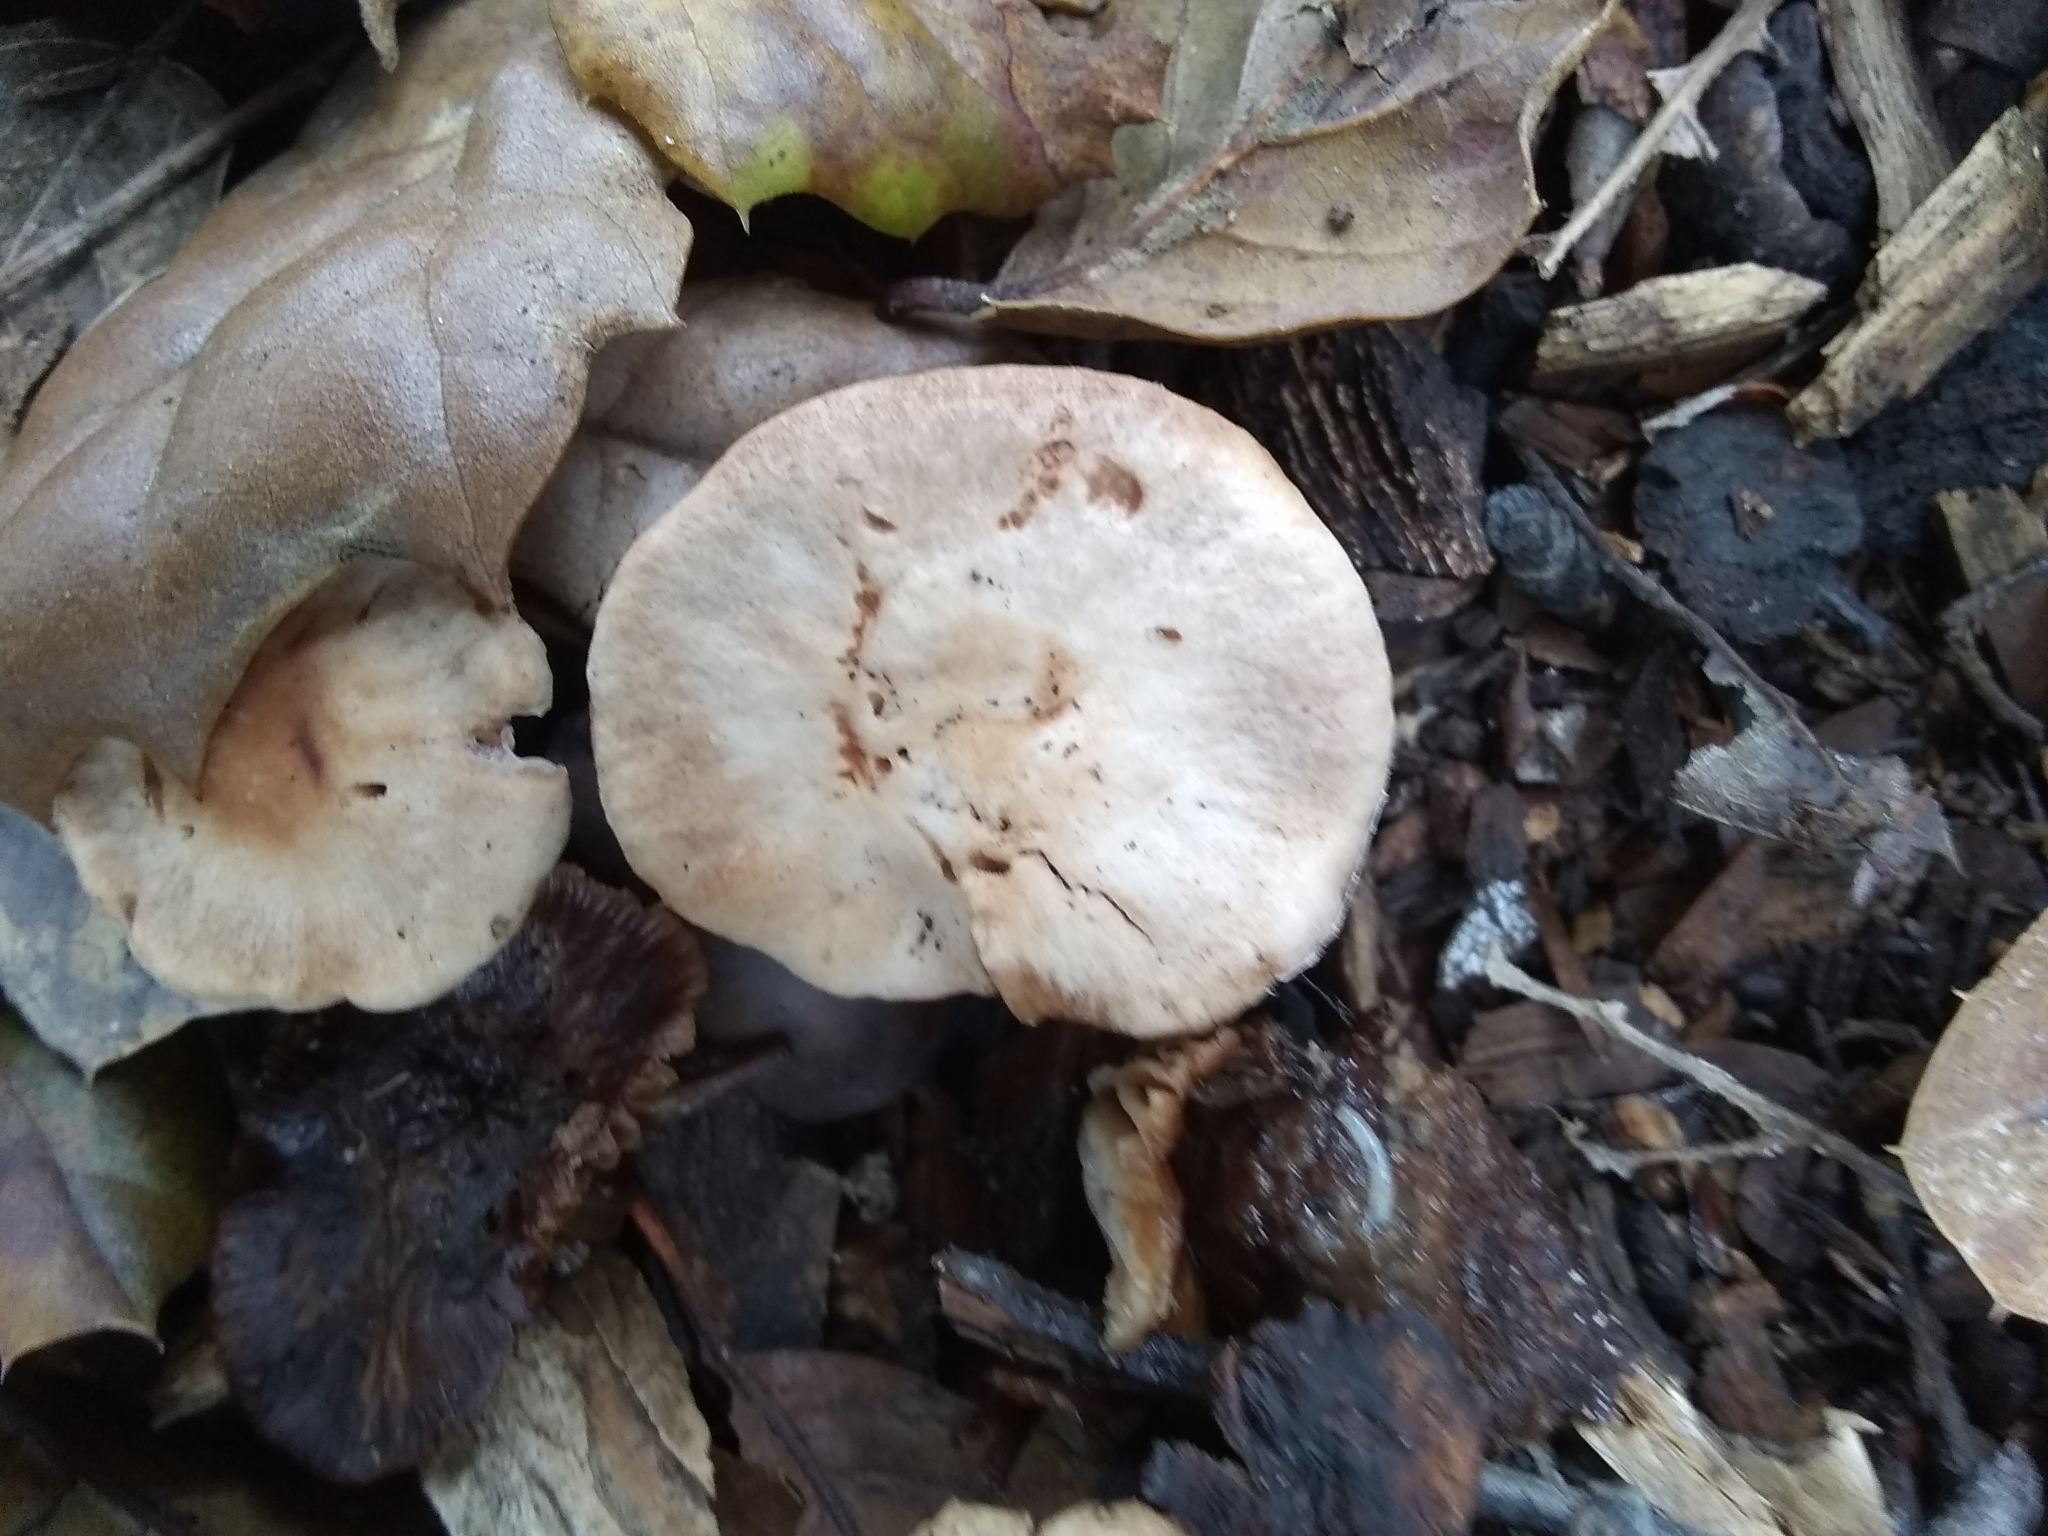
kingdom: Fungi
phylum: Basidiomycota
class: Agaricomycetes
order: Agaricales
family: Omphalotaceae
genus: Gymnopus
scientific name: Gymnopus brassicolens
